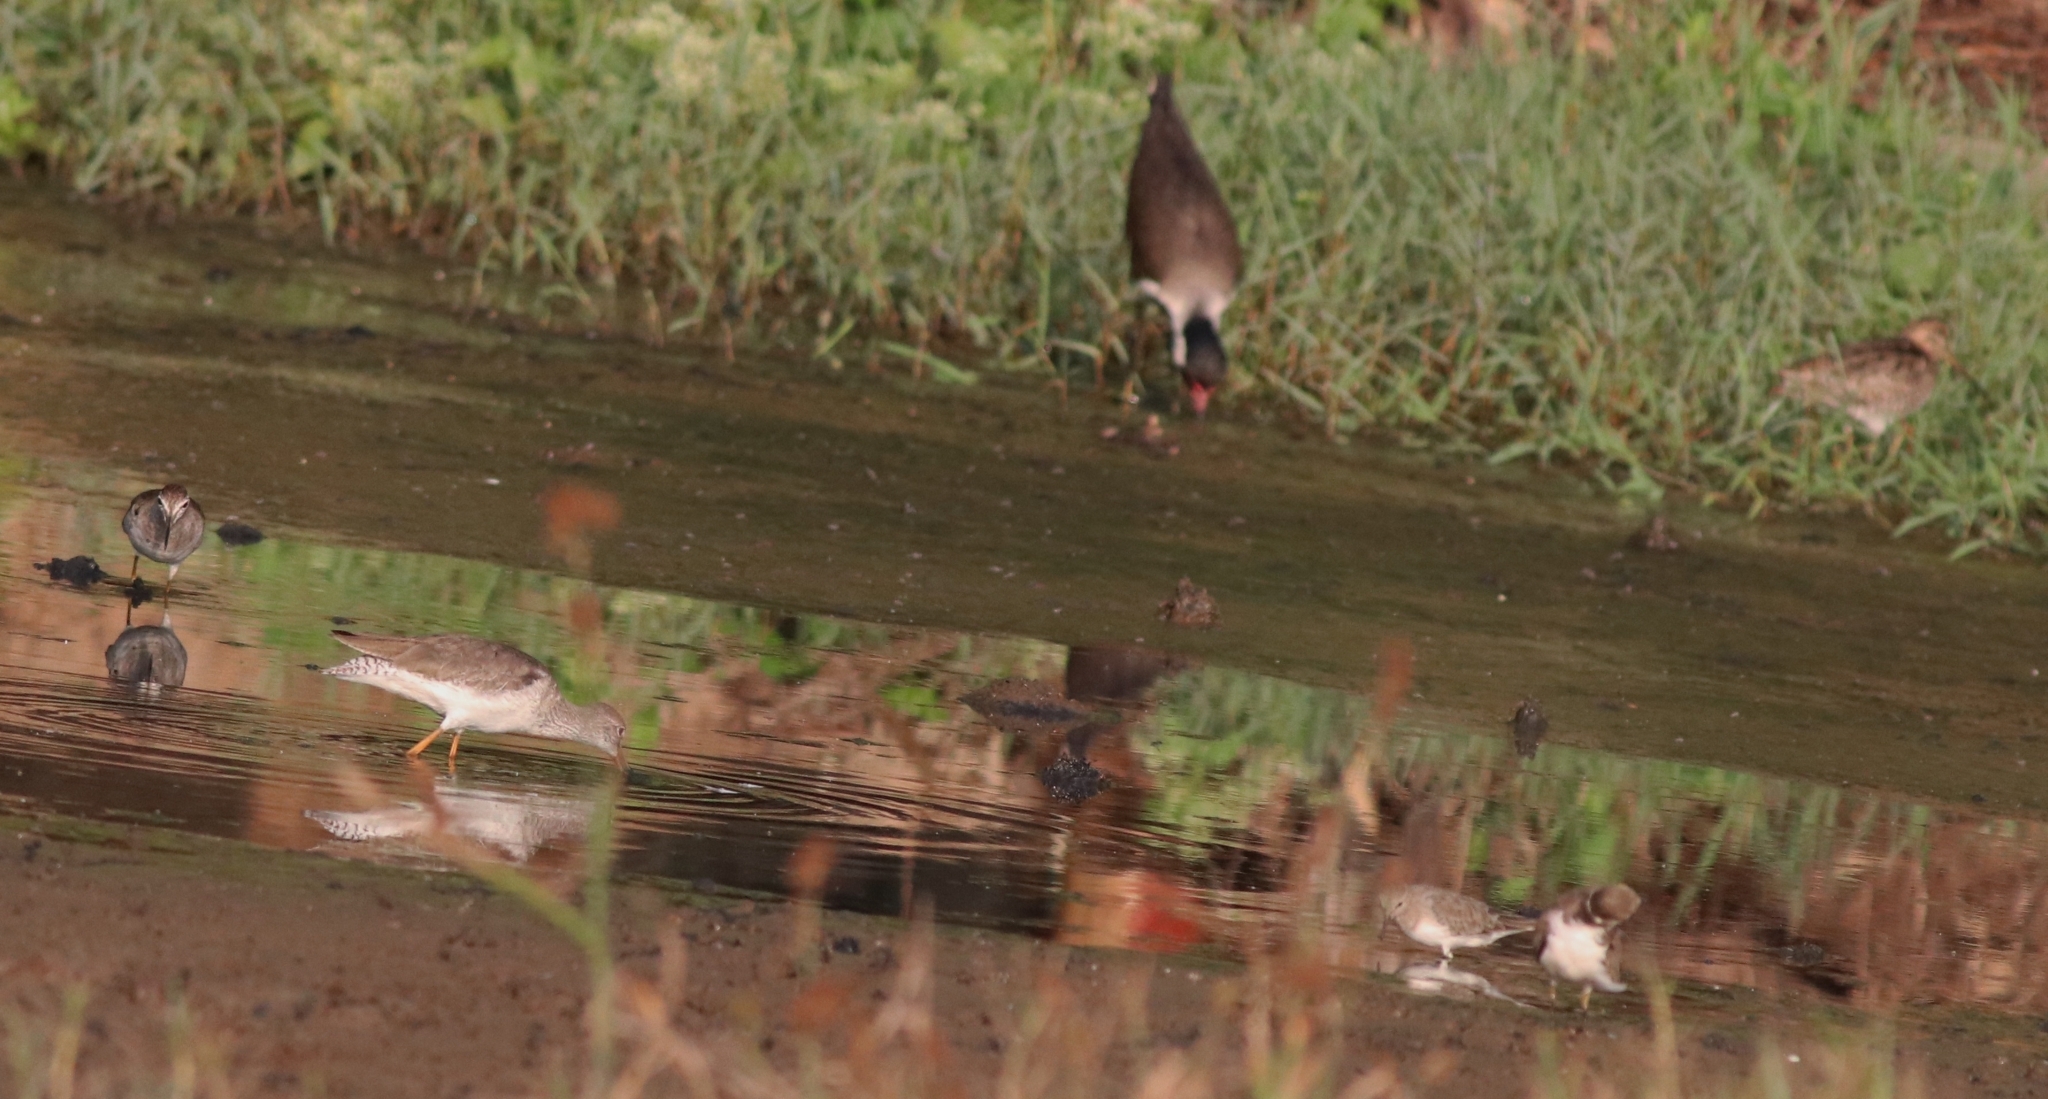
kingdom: Animalia
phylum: Chordata
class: Aves
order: Charadriiformes
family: Charadriidae
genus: Vanellus
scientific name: Vanellus indicus
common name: Red-wattled lapwing
